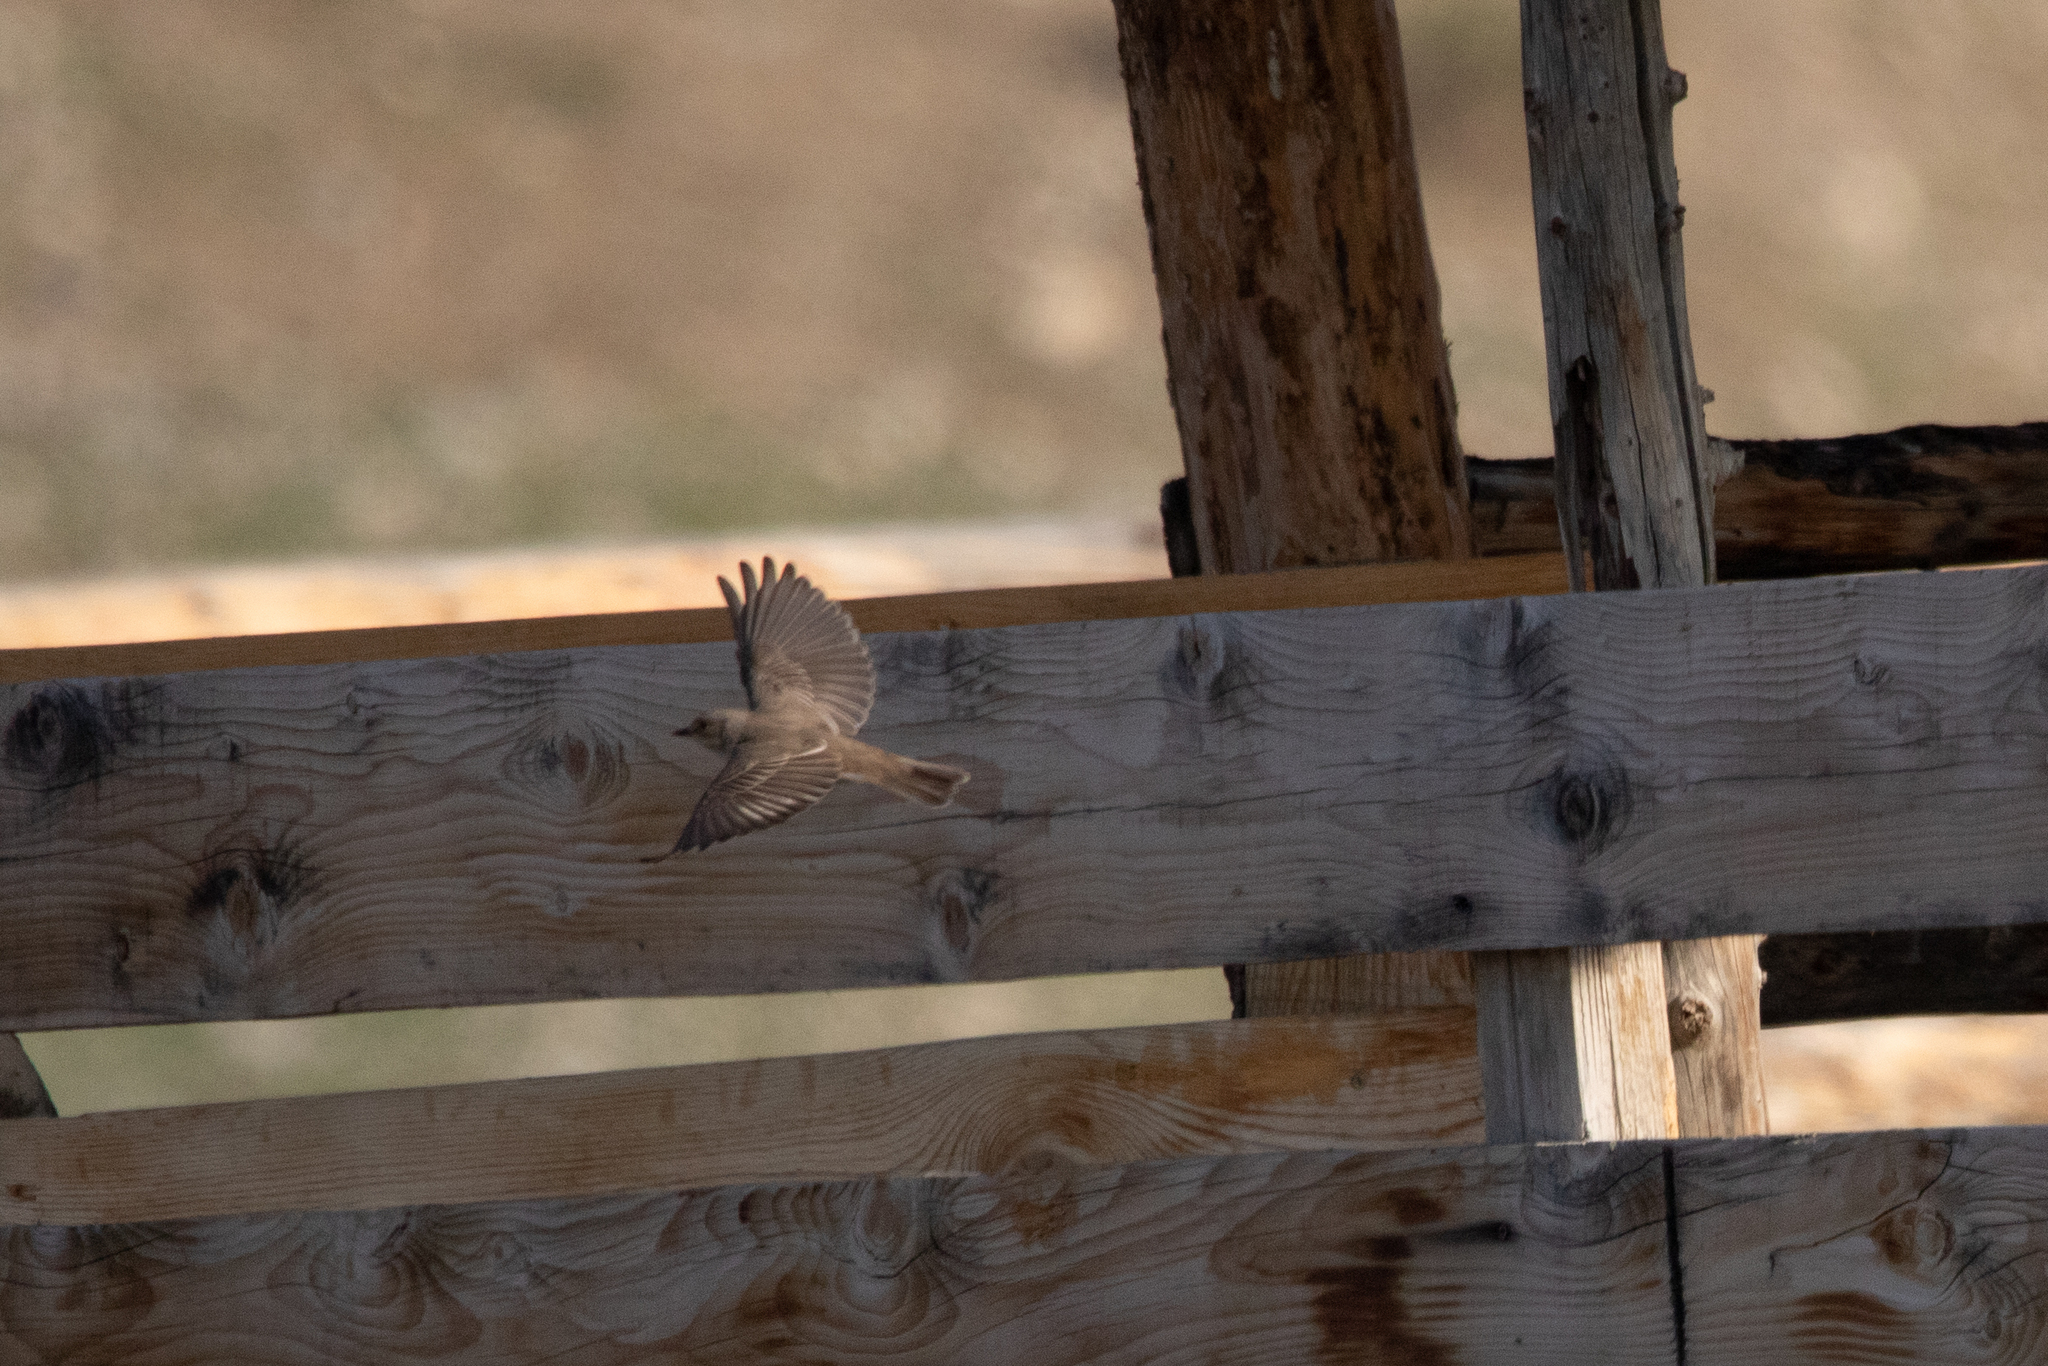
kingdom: Animalia
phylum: Chordata
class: Aves
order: Passeriformes
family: Muscicapidae
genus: Muscicapa
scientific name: Muscicapa striata
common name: Spotted flycatcher
